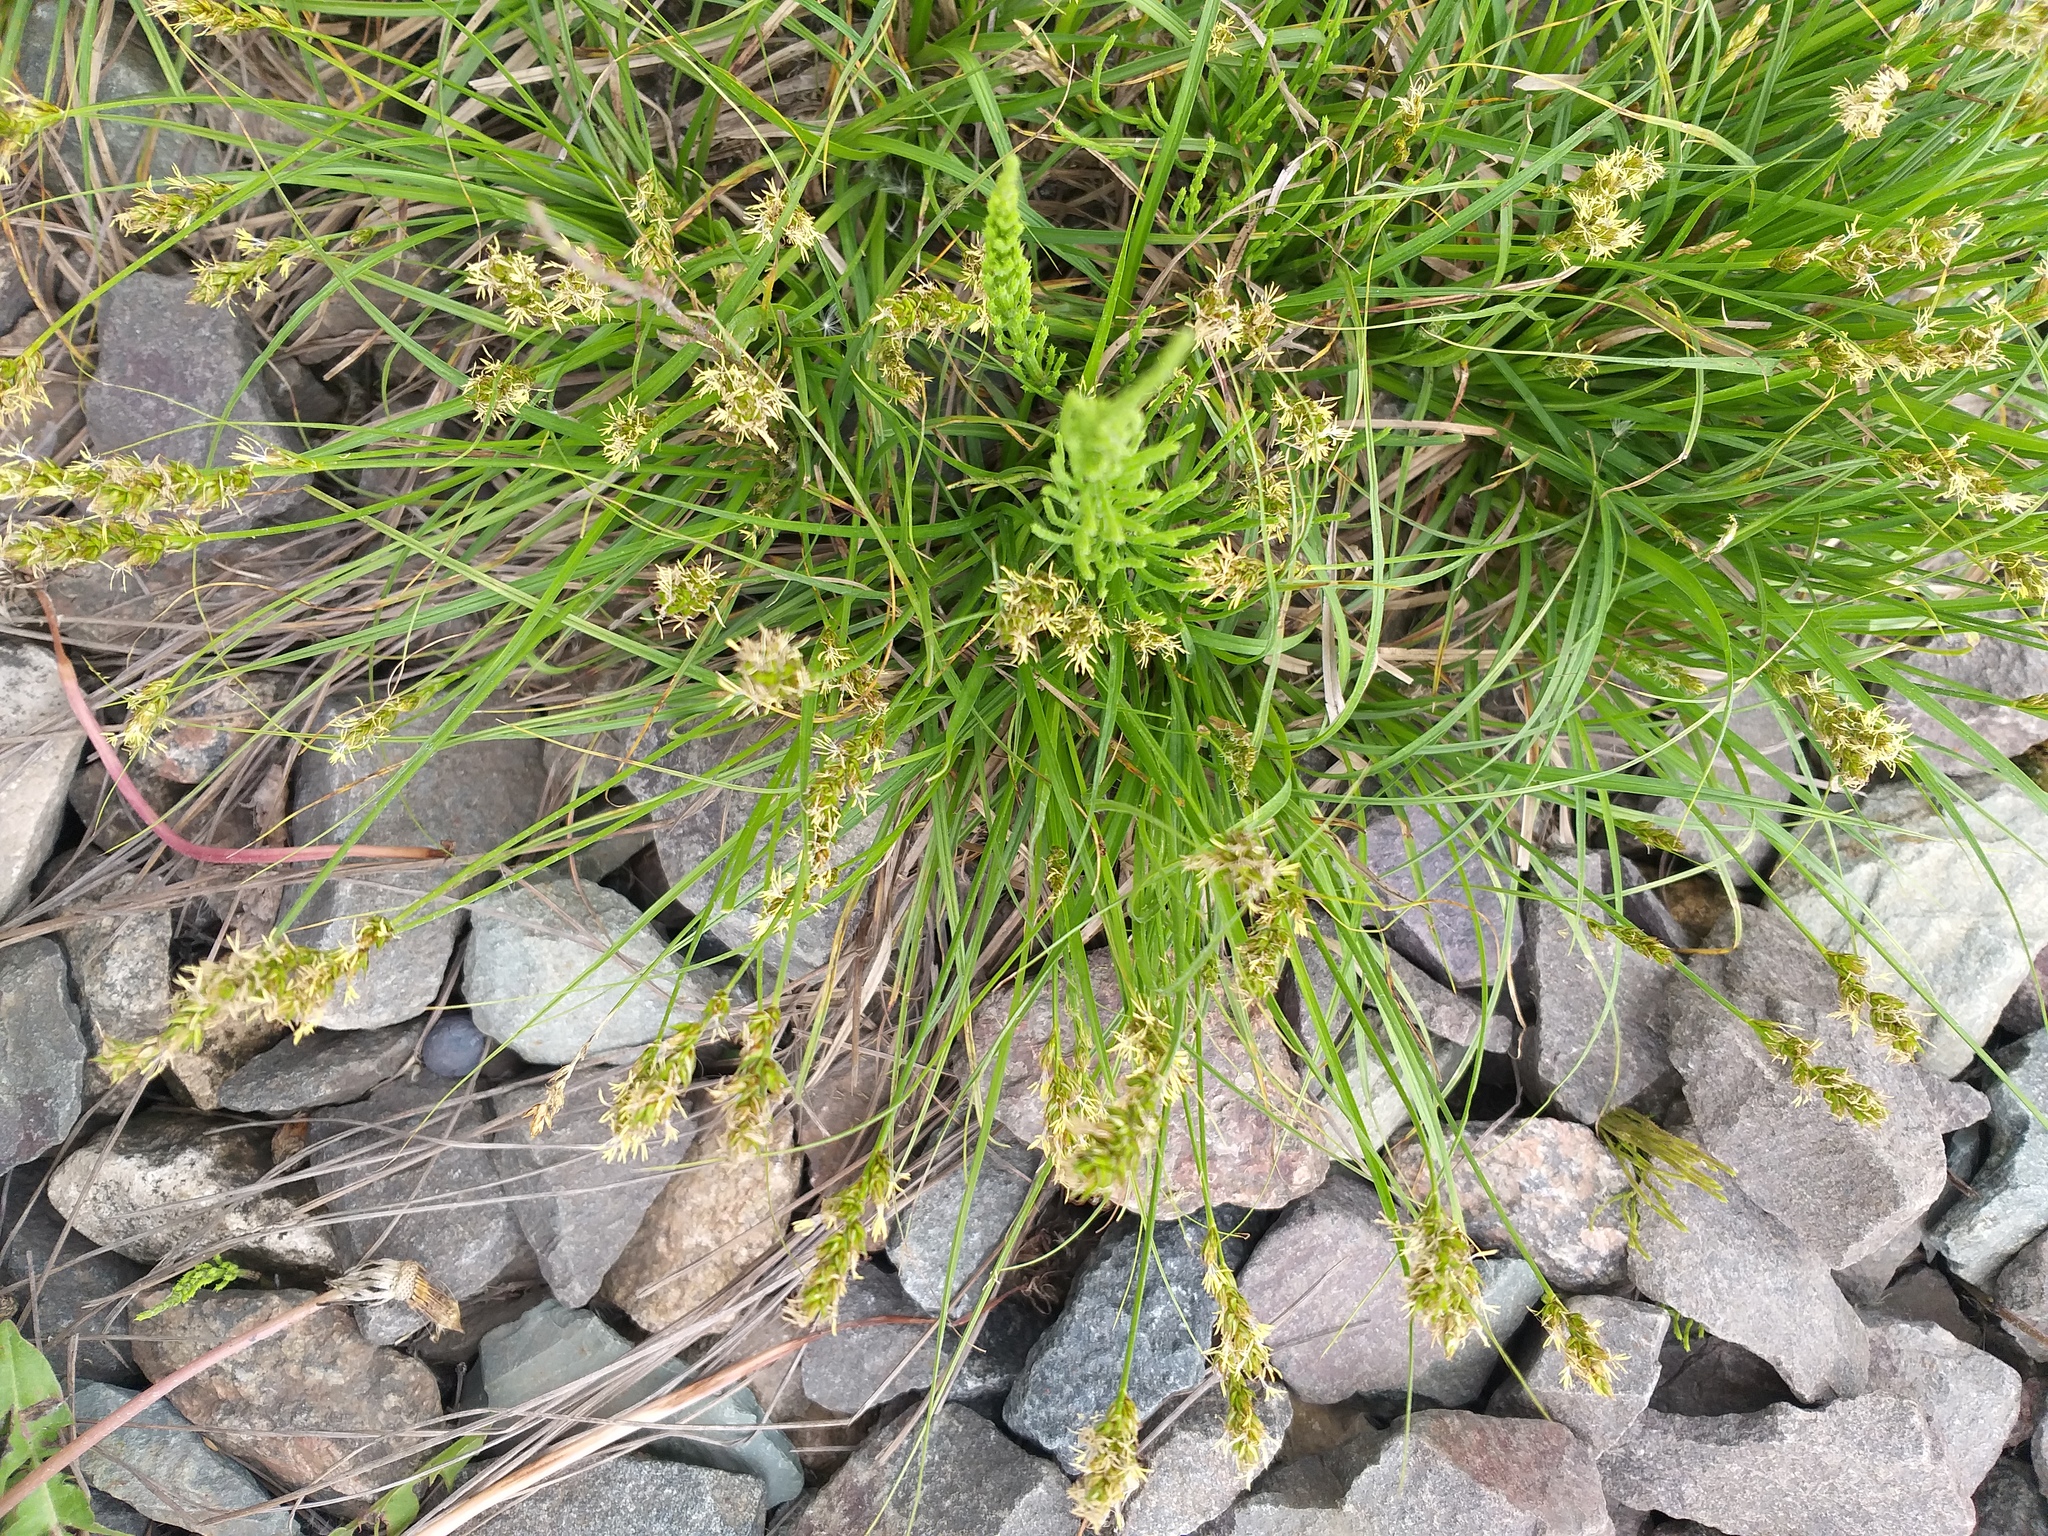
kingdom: Plantae
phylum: Tracheophyta
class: Liliopsida
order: Poales
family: Cyperaceae
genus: Carex
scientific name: Carex spicata
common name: Spiked sedge
